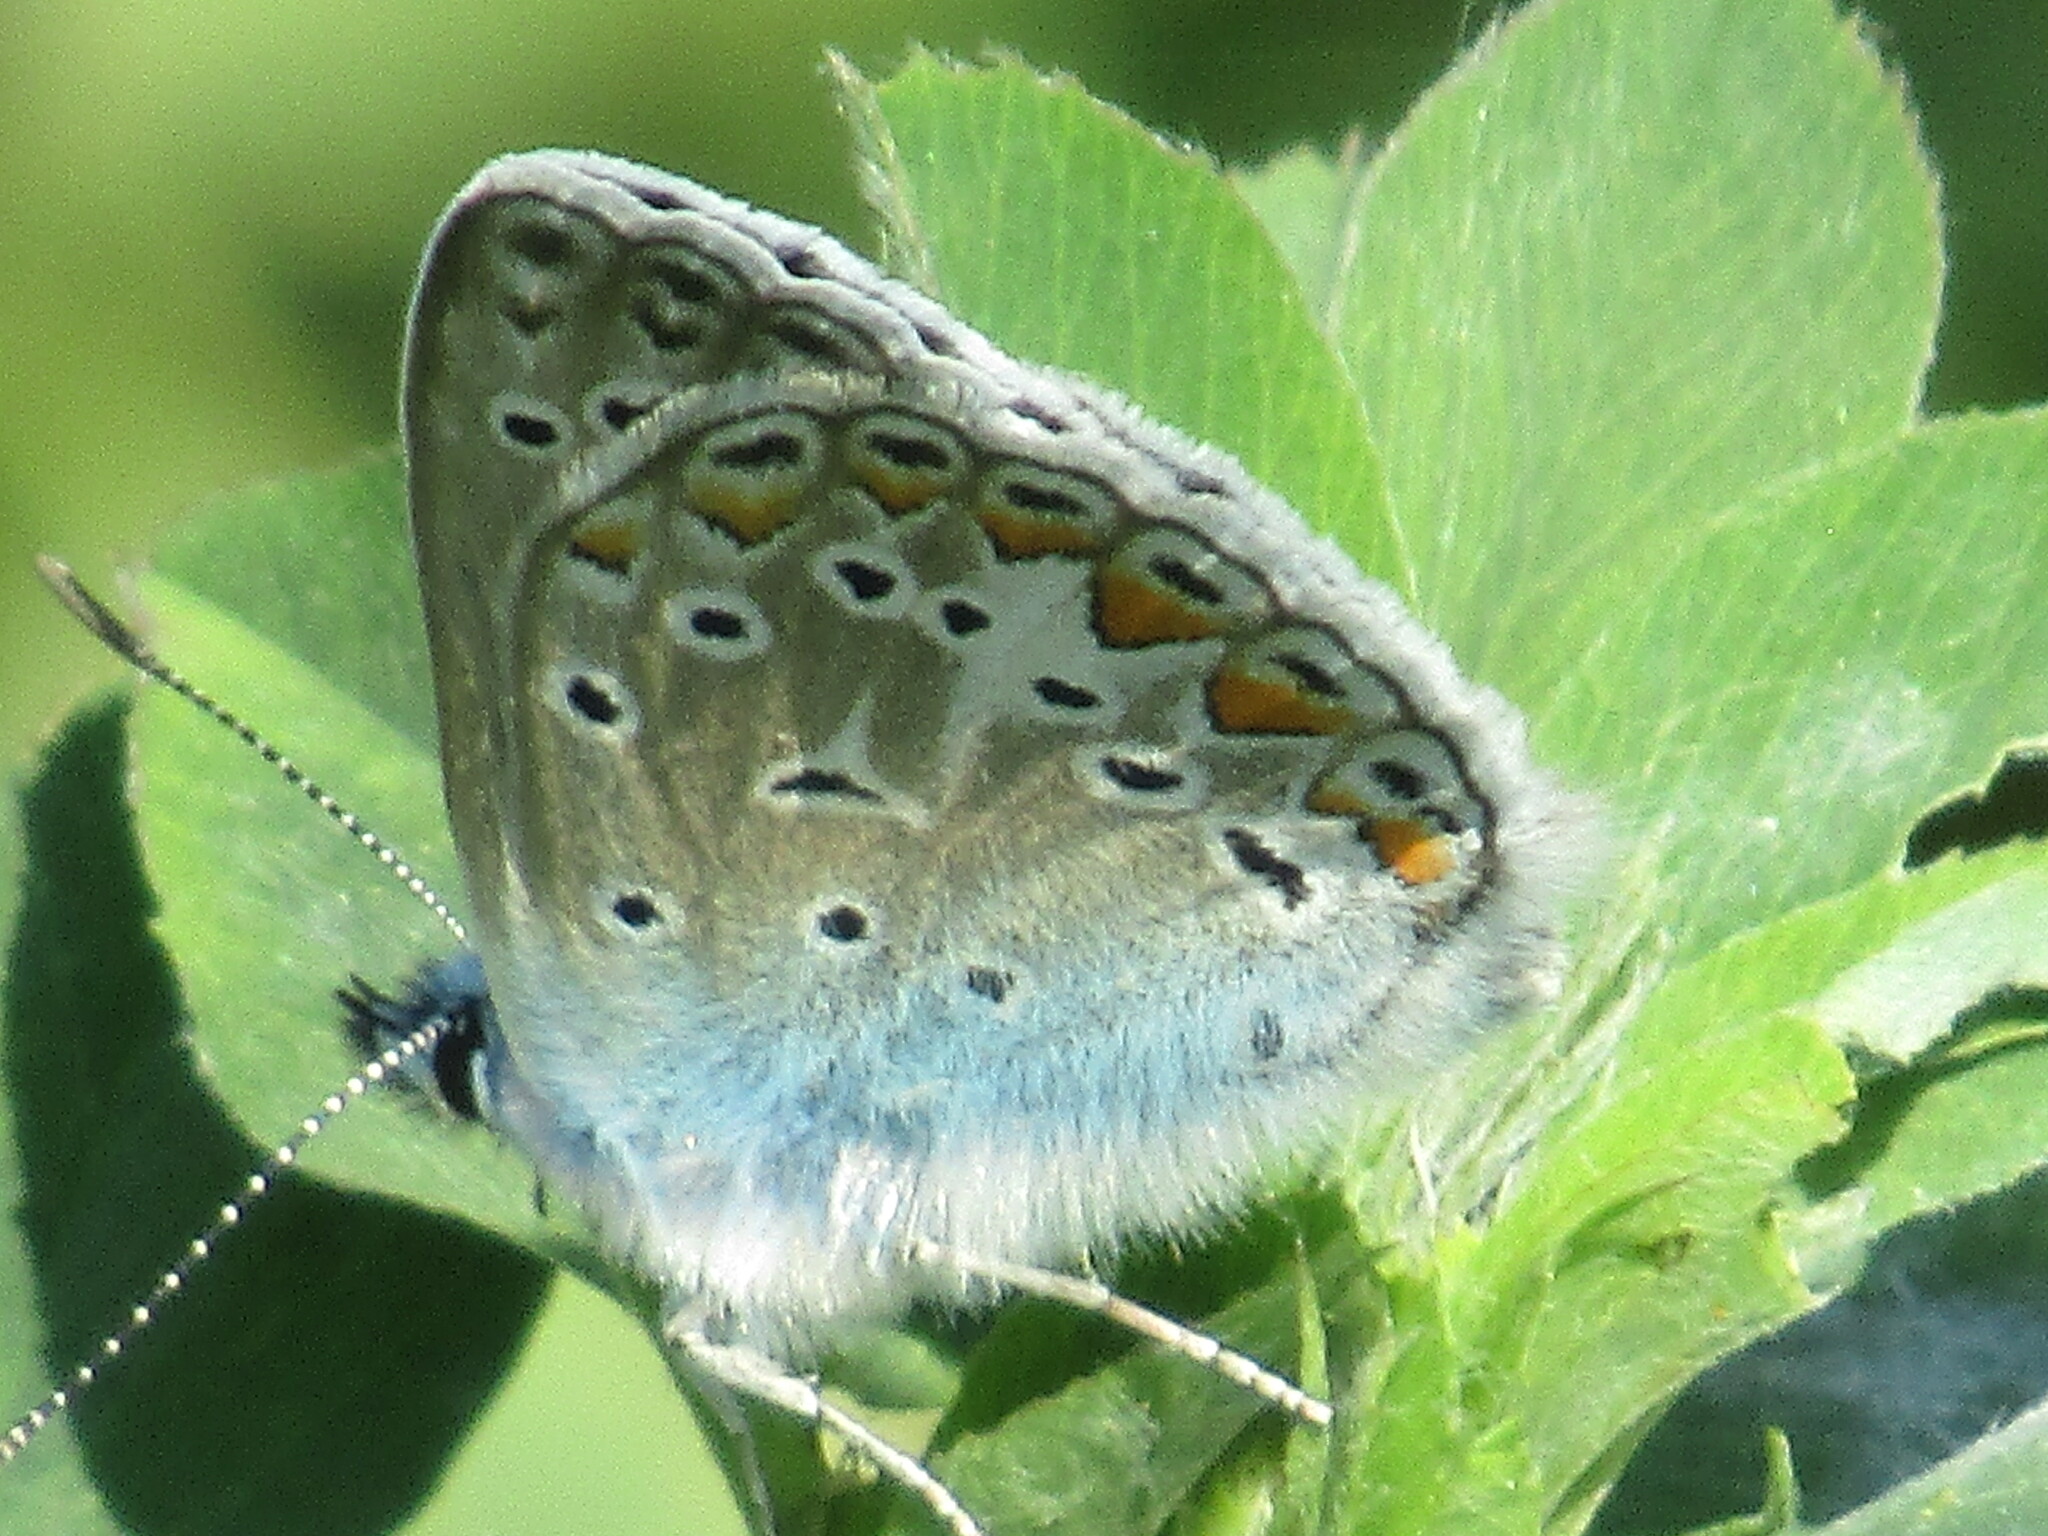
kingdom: Animalia
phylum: Arthropoda
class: Insecta
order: Lepidoptera
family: Lycaenidae
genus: Polyommatus
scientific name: Polyommatus
